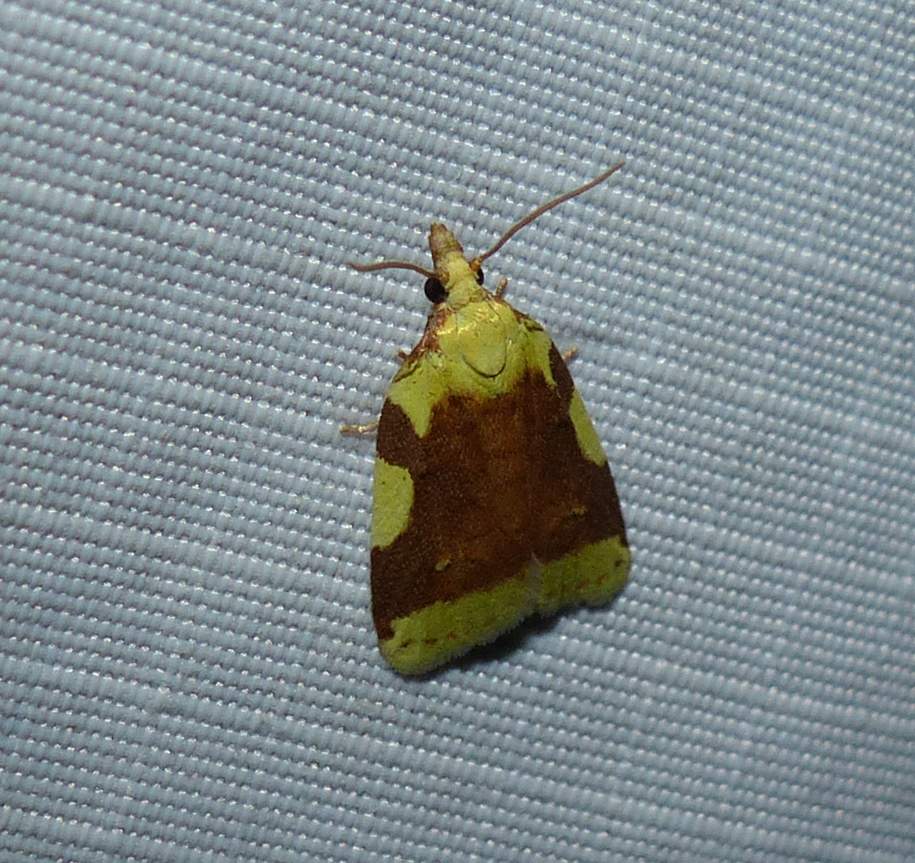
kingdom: Animalia
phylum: Arthropoda
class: Insecta
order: Lepidoptera
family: Tortricidae
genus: Cenopis
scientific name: Cenopis niveana
